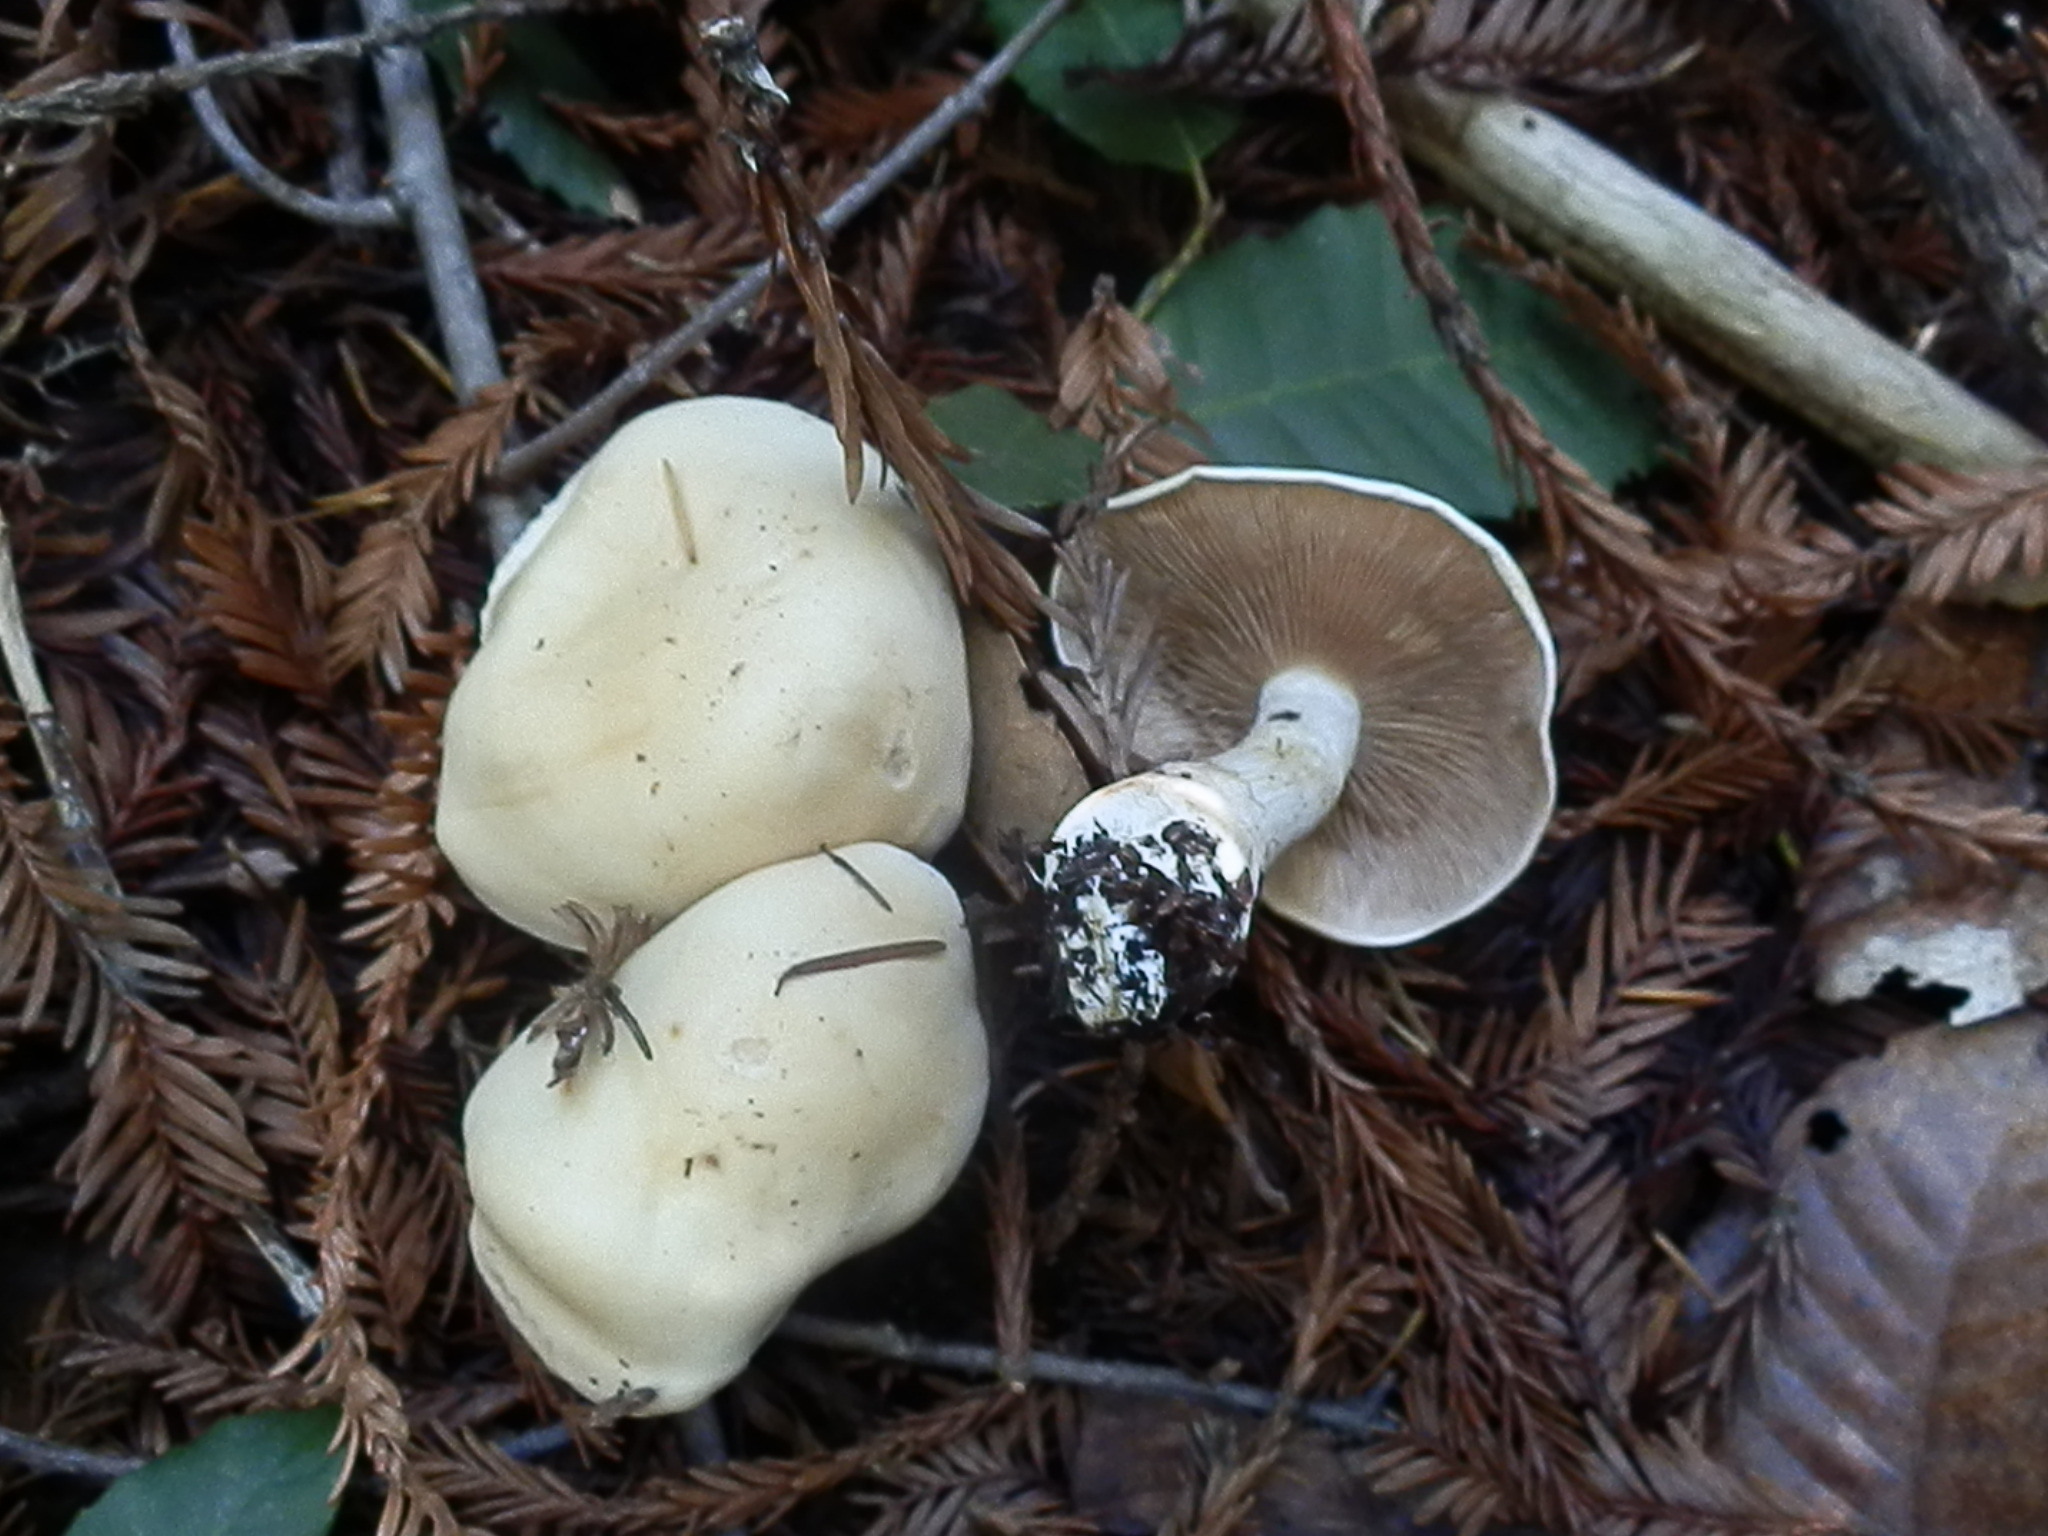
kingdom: Fungi
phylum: Basidiomycota
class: Agaricomycetes
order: Agaricales
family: Hymenogastraceae
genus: Hebeloma
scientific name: Hebeloma leucosarx
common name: Birch poisonpie
